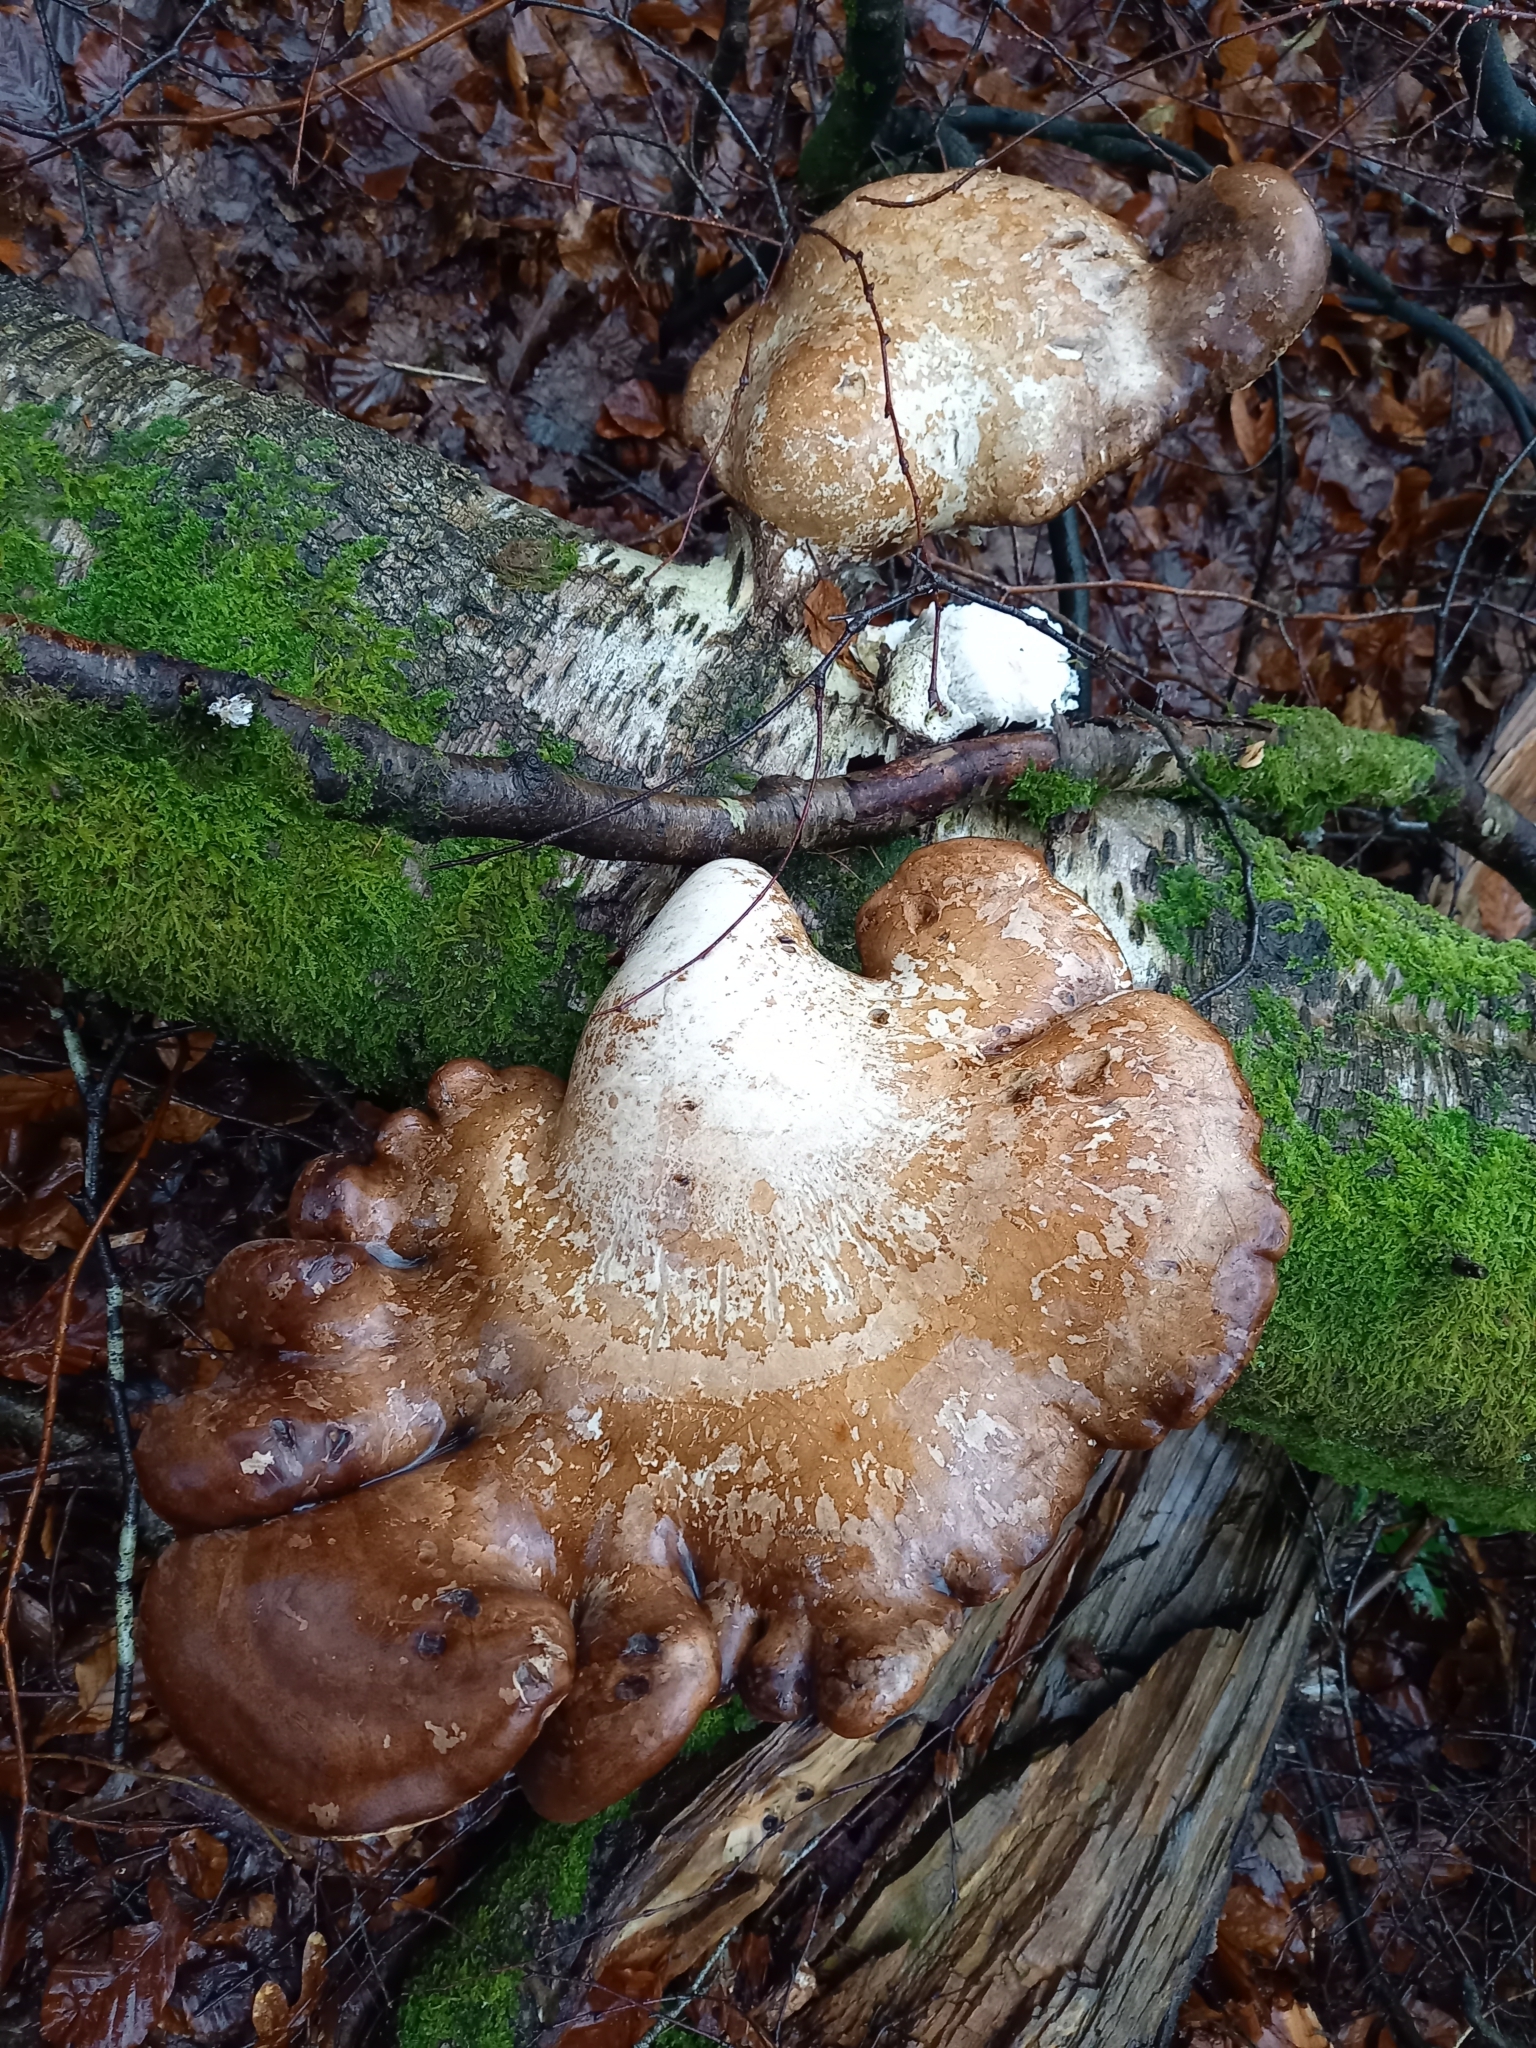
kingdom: Fungi
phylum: Basidiomycota
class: Agaricomycetes
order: Polyporales
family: Fomitopsidaceae
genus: Fomitopsis
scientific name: Fomitopsis betulina
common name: Birch polypore
